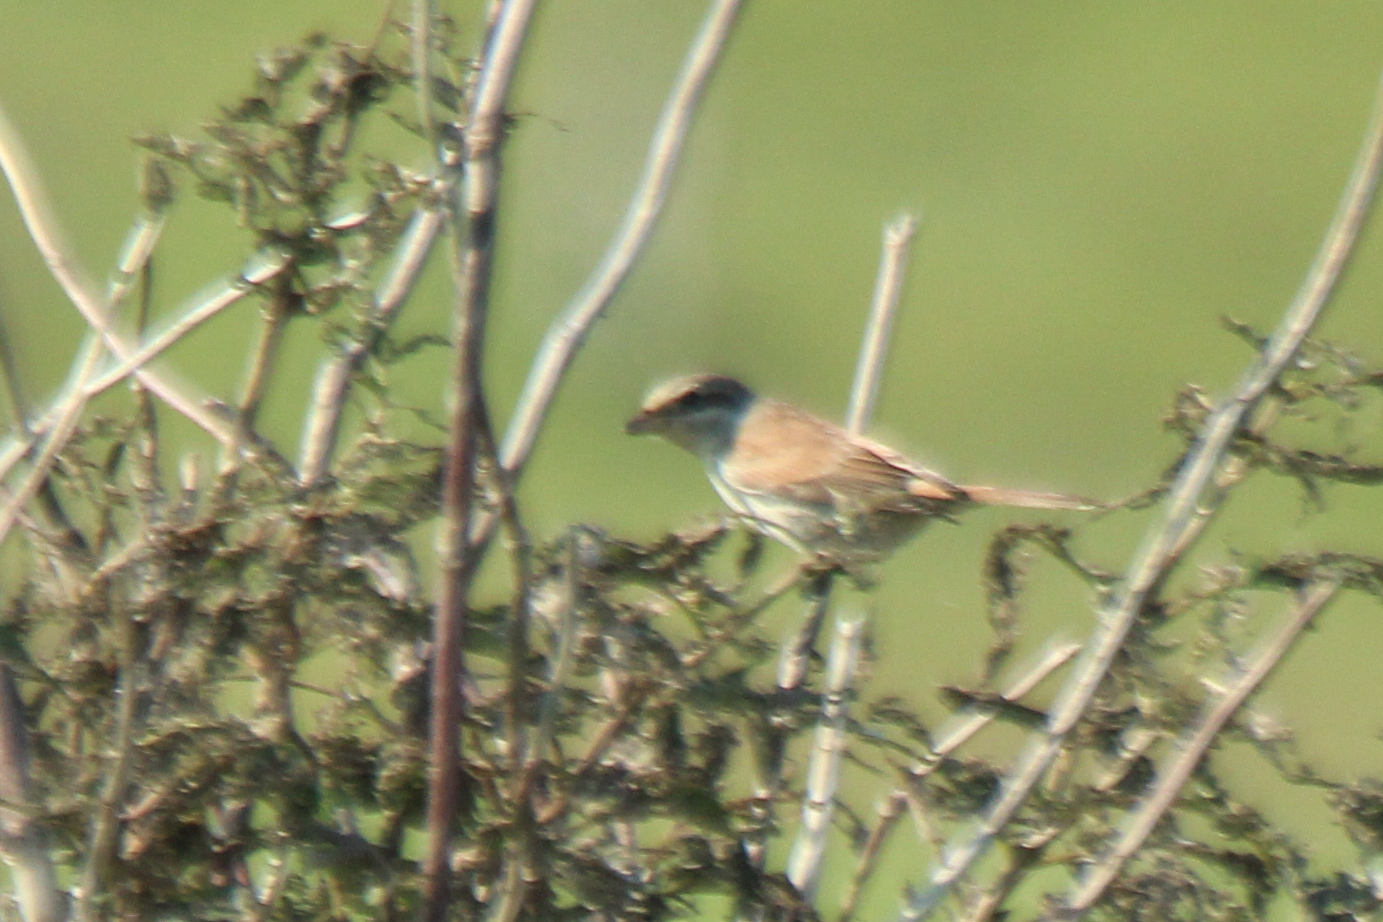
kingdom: Animalia
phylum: Chordata
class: Aves
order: Passeriformes
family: Laniidae
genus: Lanius
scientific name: Lanius collurio
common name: Red-backed shrike
